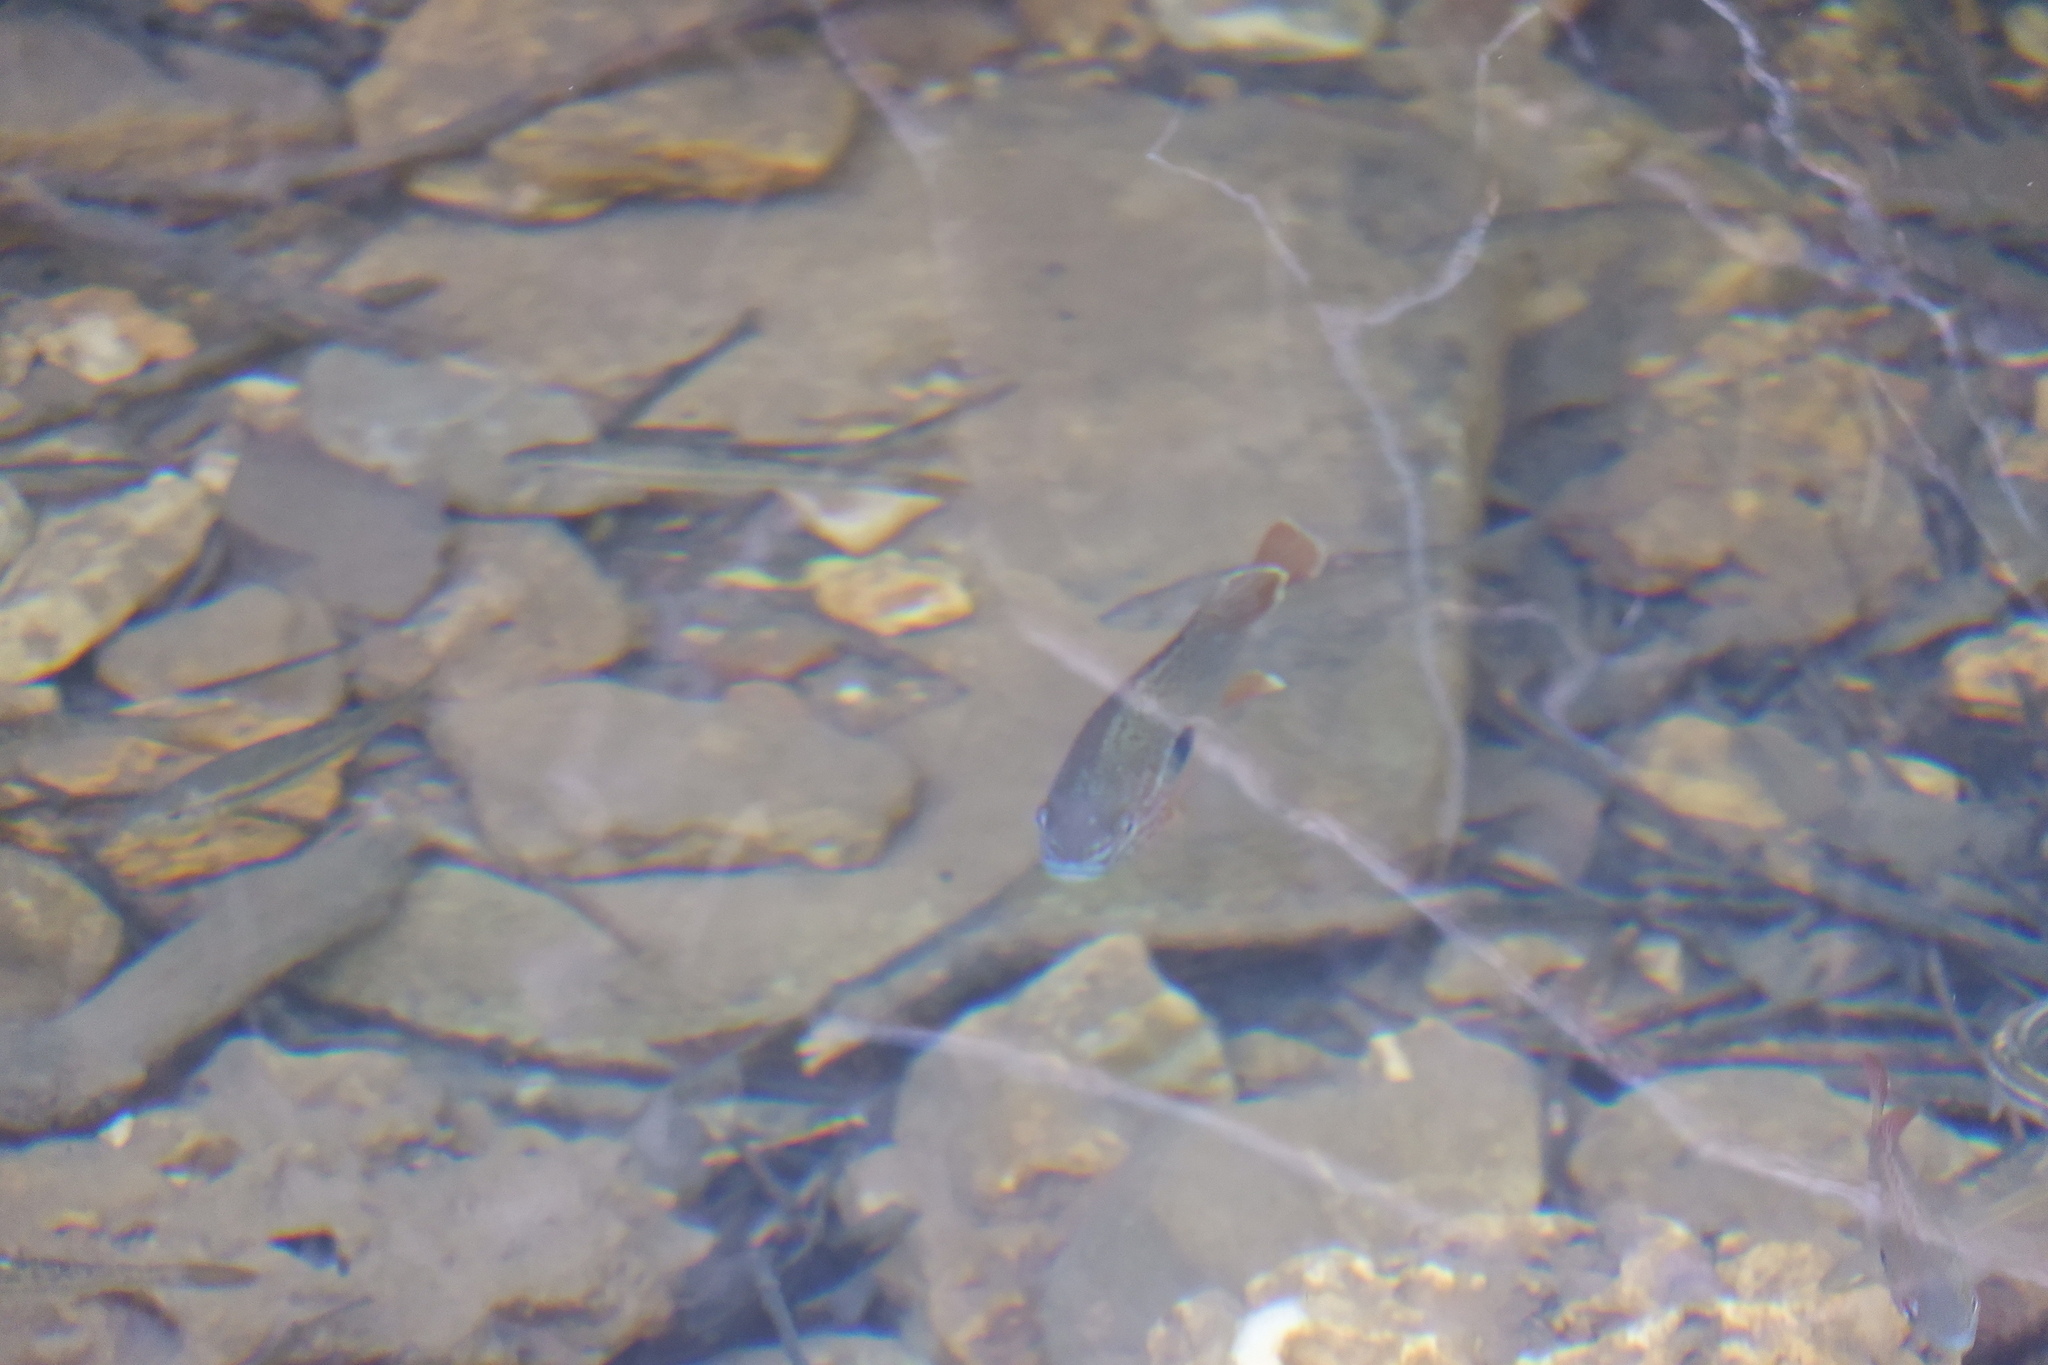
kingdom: Animalia
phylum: Chordata
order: Perciformes
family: Centrarchidae
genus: Lepomis
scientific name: Lepomis megalotis
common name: Longear sunfish
